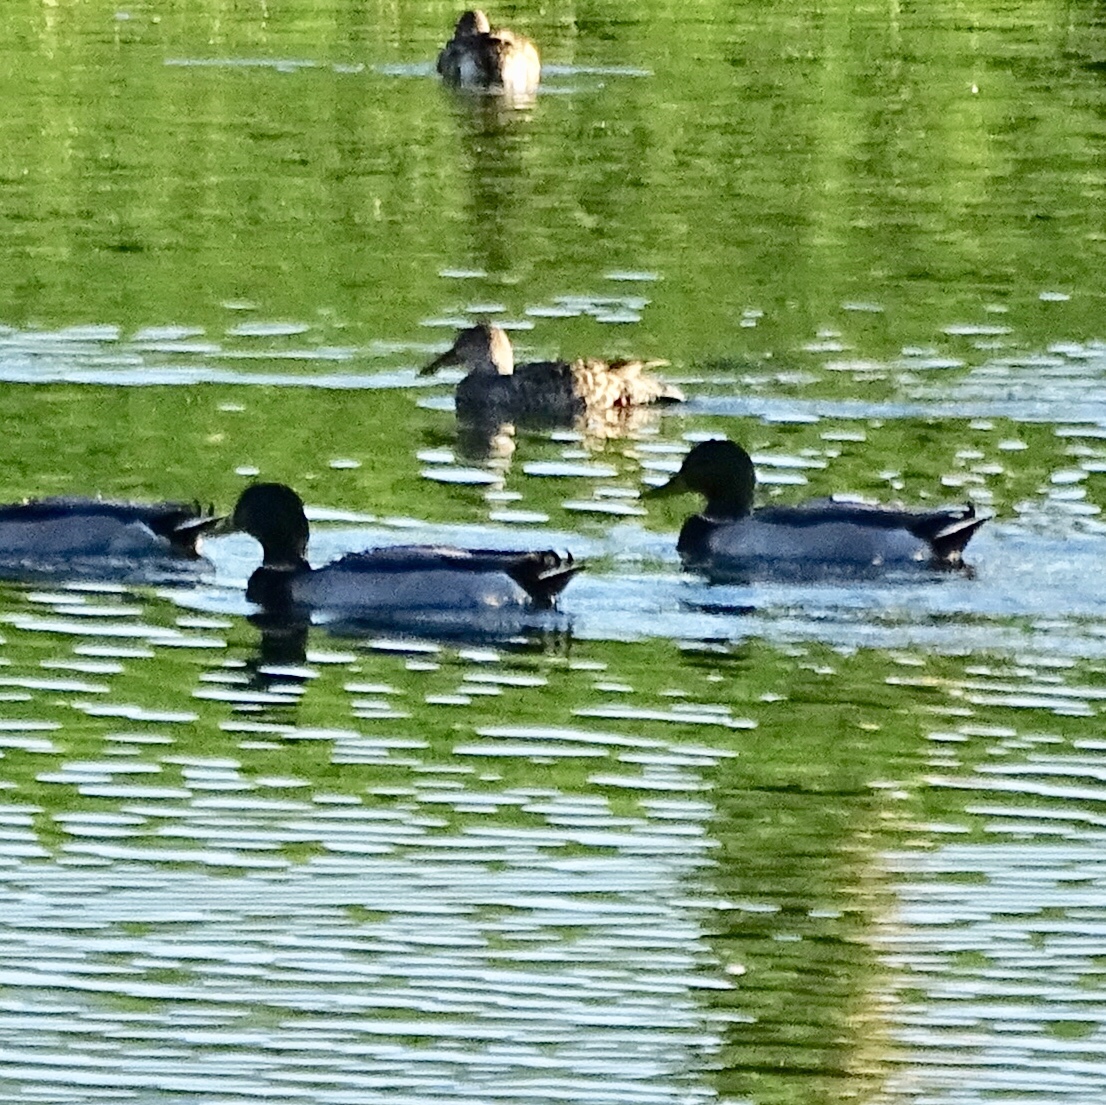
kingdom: Animalia
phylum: Chordata
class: Aves
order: Anseriformes
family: Anatidae
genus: Anas
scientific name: Anas platyrhynchos
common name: Mallard
